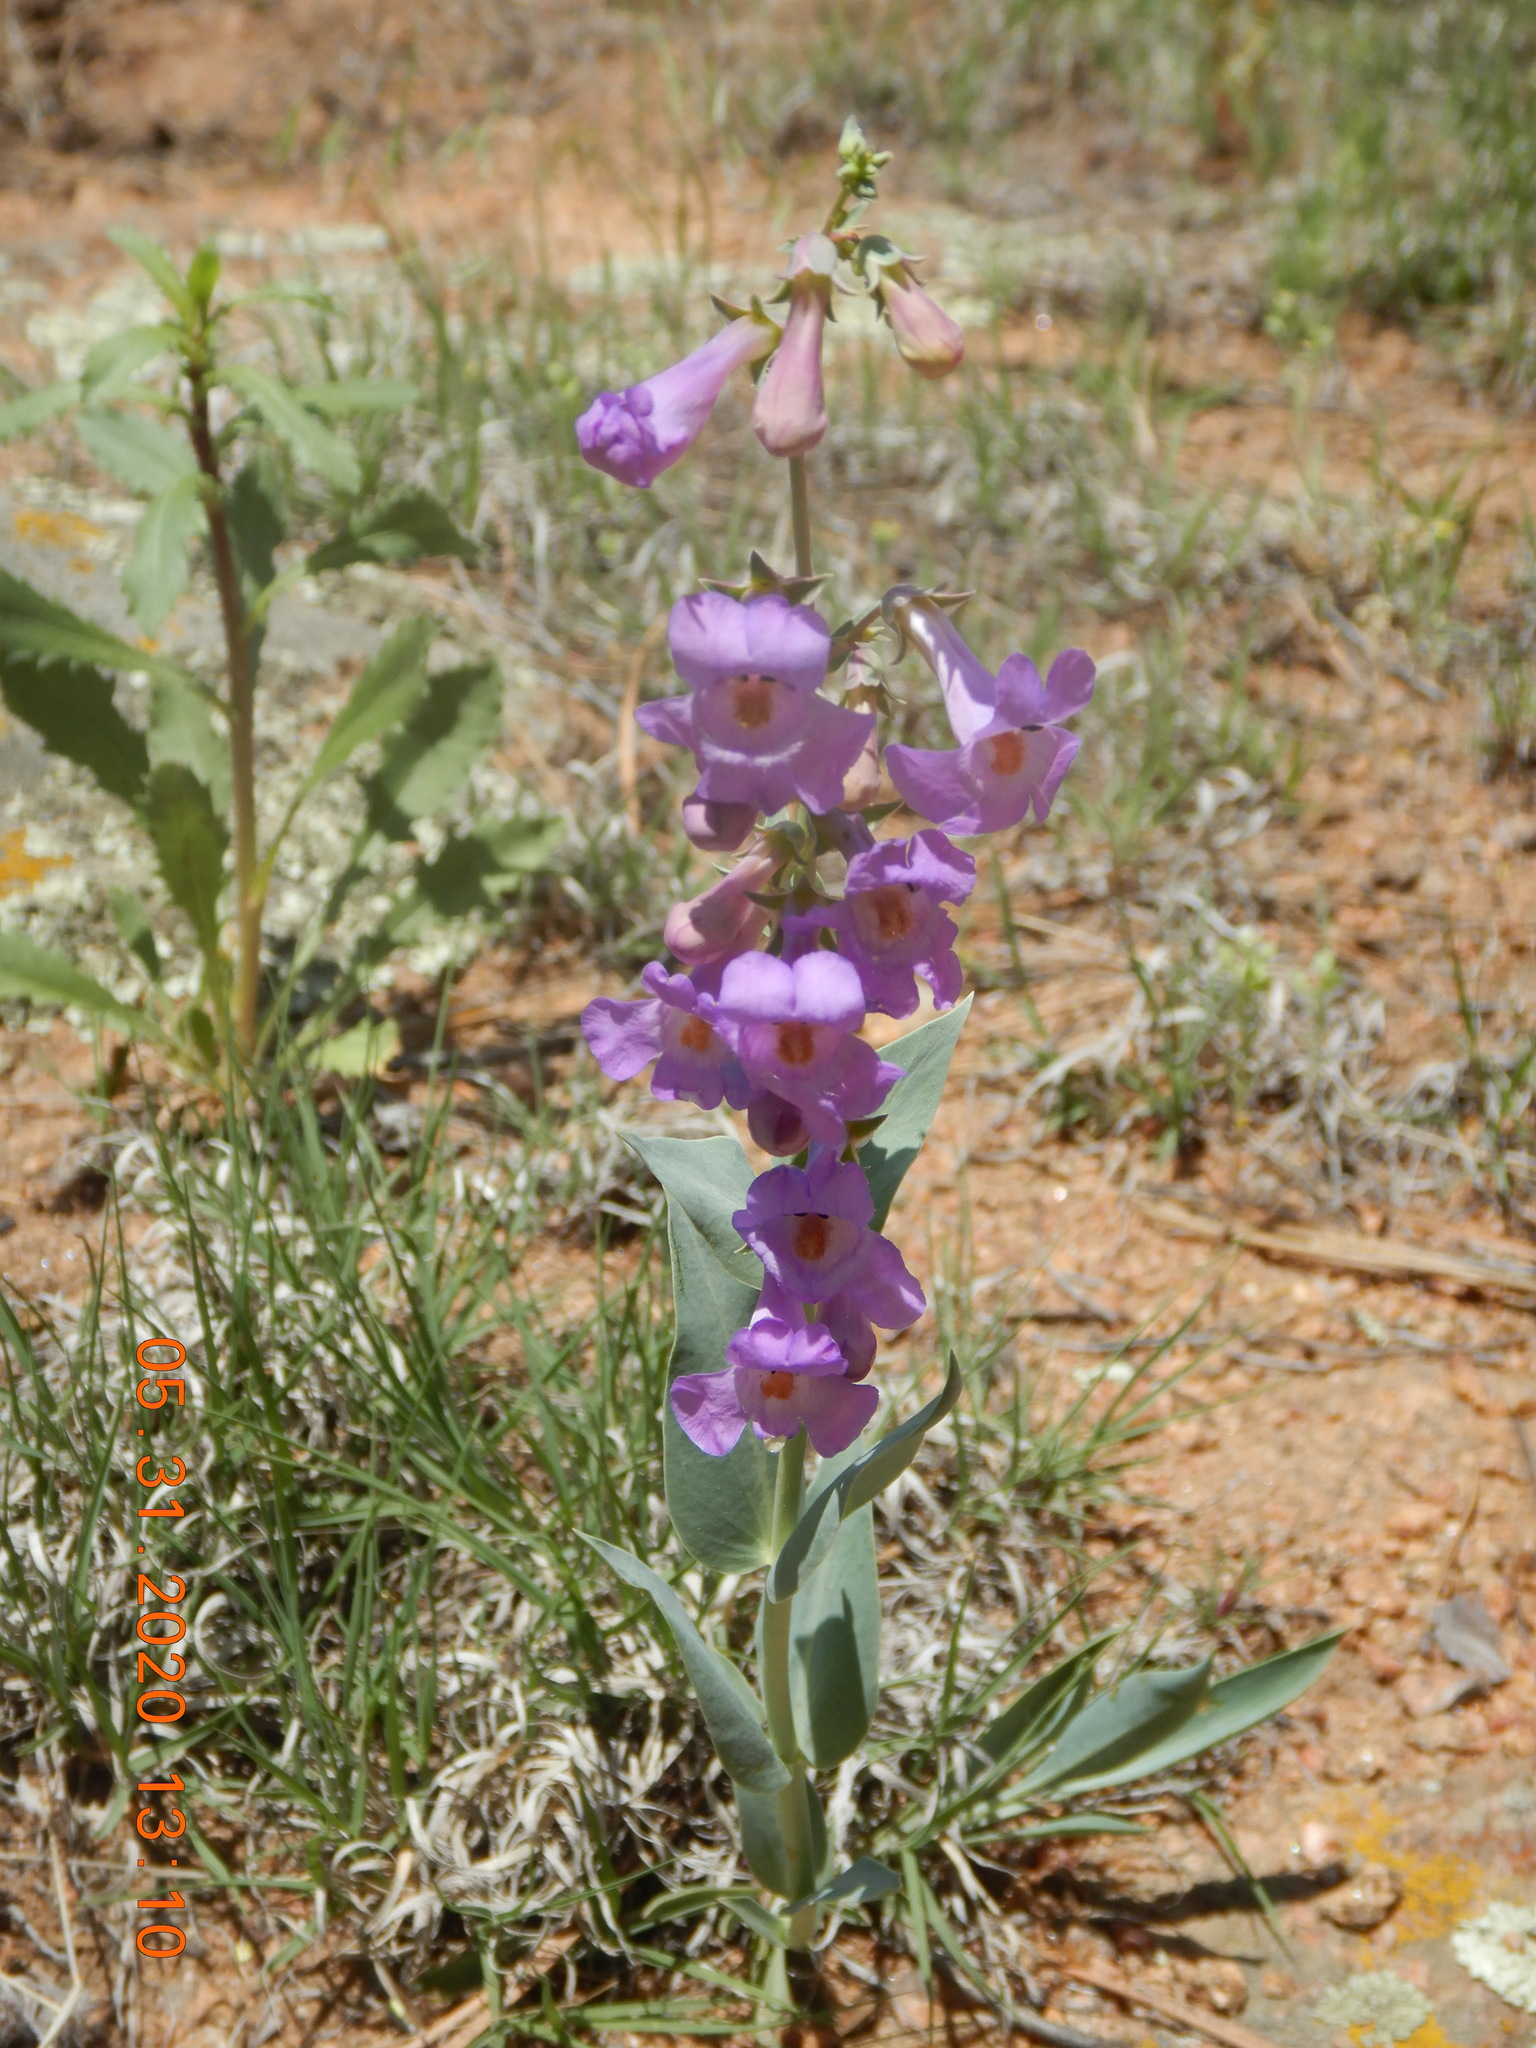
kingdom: Plantae
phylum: Tracheophyta
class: Magnoliopsida
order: Lamiales
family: Plantaginaceae
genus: Penstemon
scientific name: Penstemon secundiflorus
